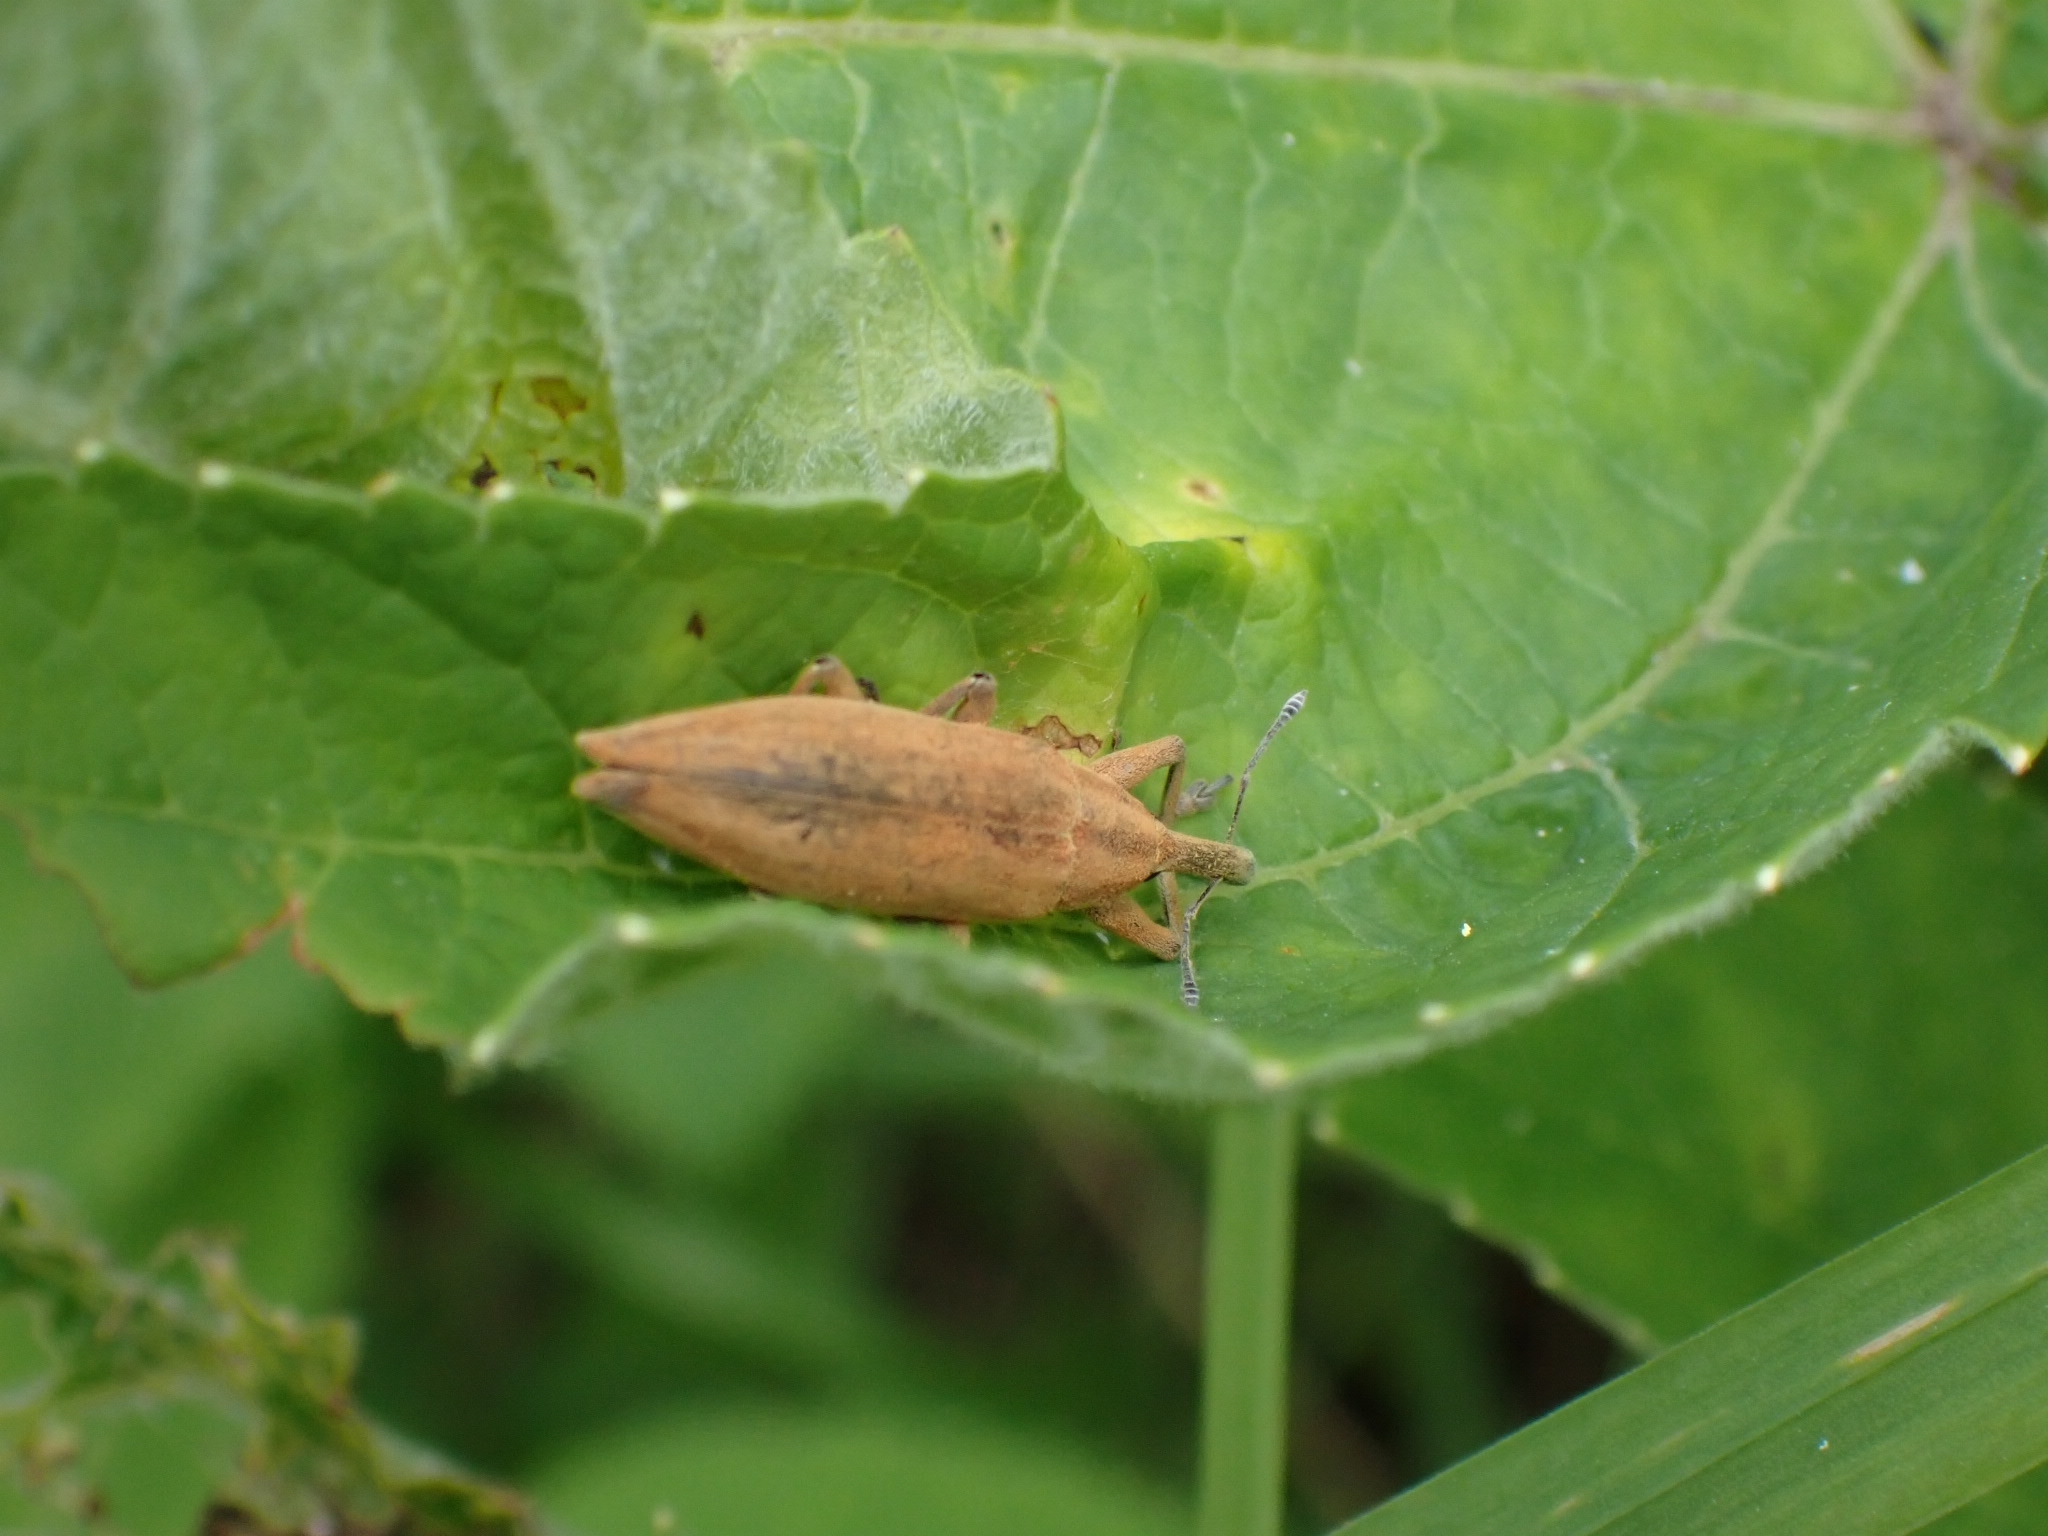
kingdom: Animalia
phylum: Arthropoda
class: Insecta
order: Coleoptera
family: Curculionidae
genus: Lixus
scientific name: Lixus iridis
